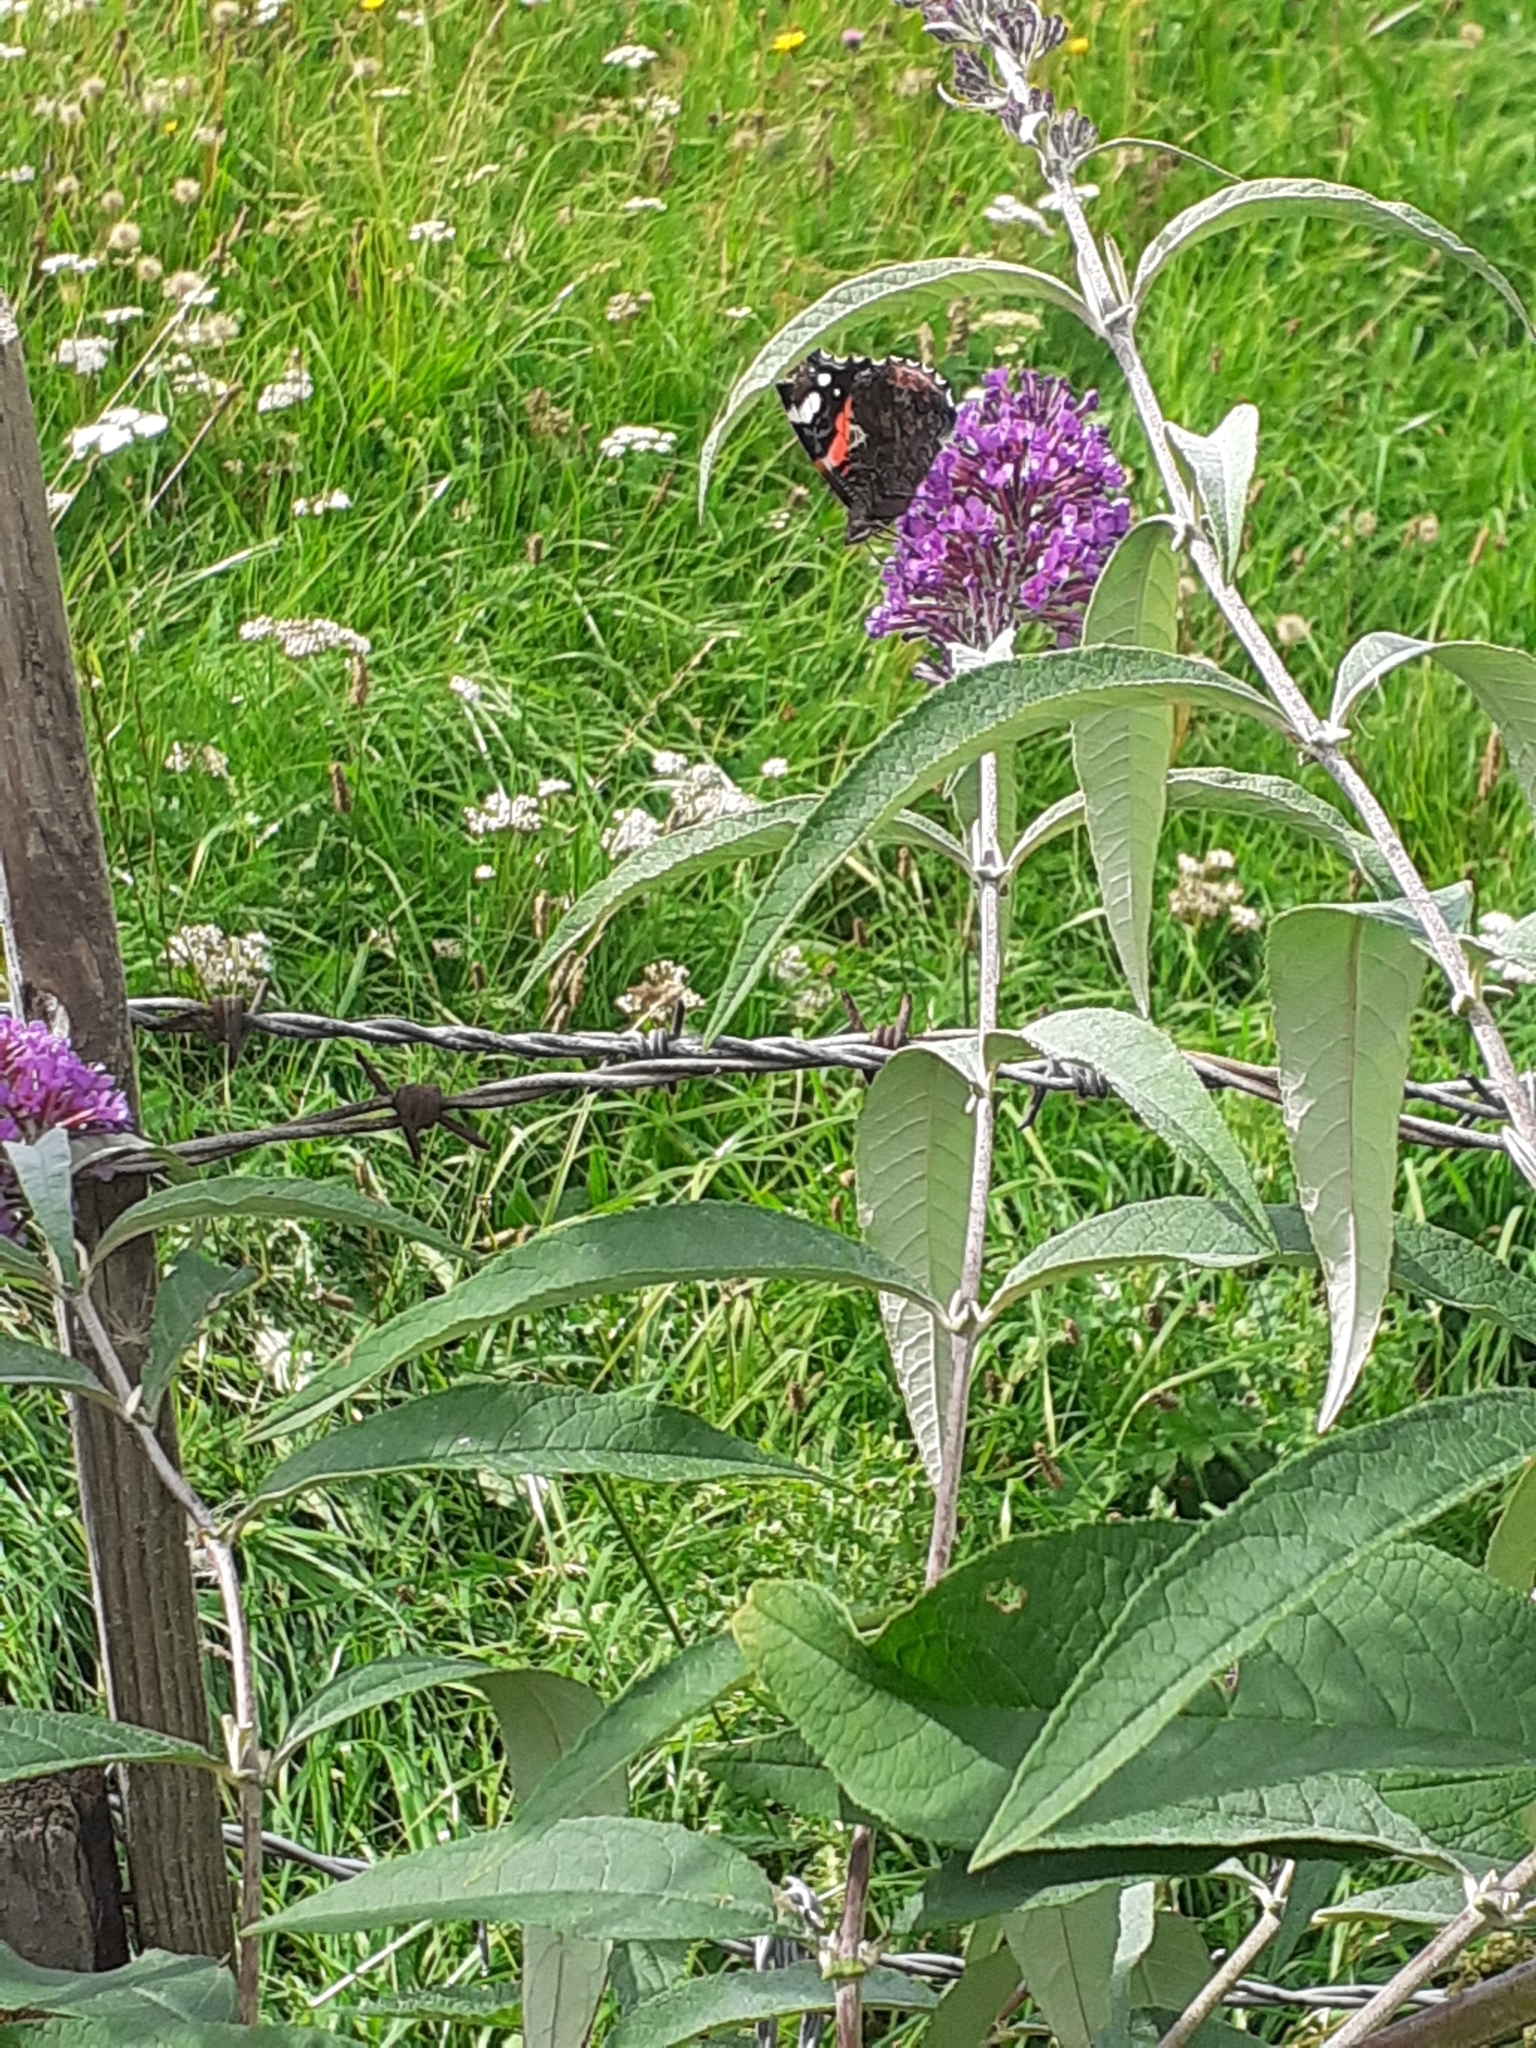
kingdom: Animalia
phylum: Arthropoda
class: Insecta
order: Lepidoptera
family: Nymphalidae
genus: Vanessa
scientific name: Vanessa atalanta
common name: Red admiral
